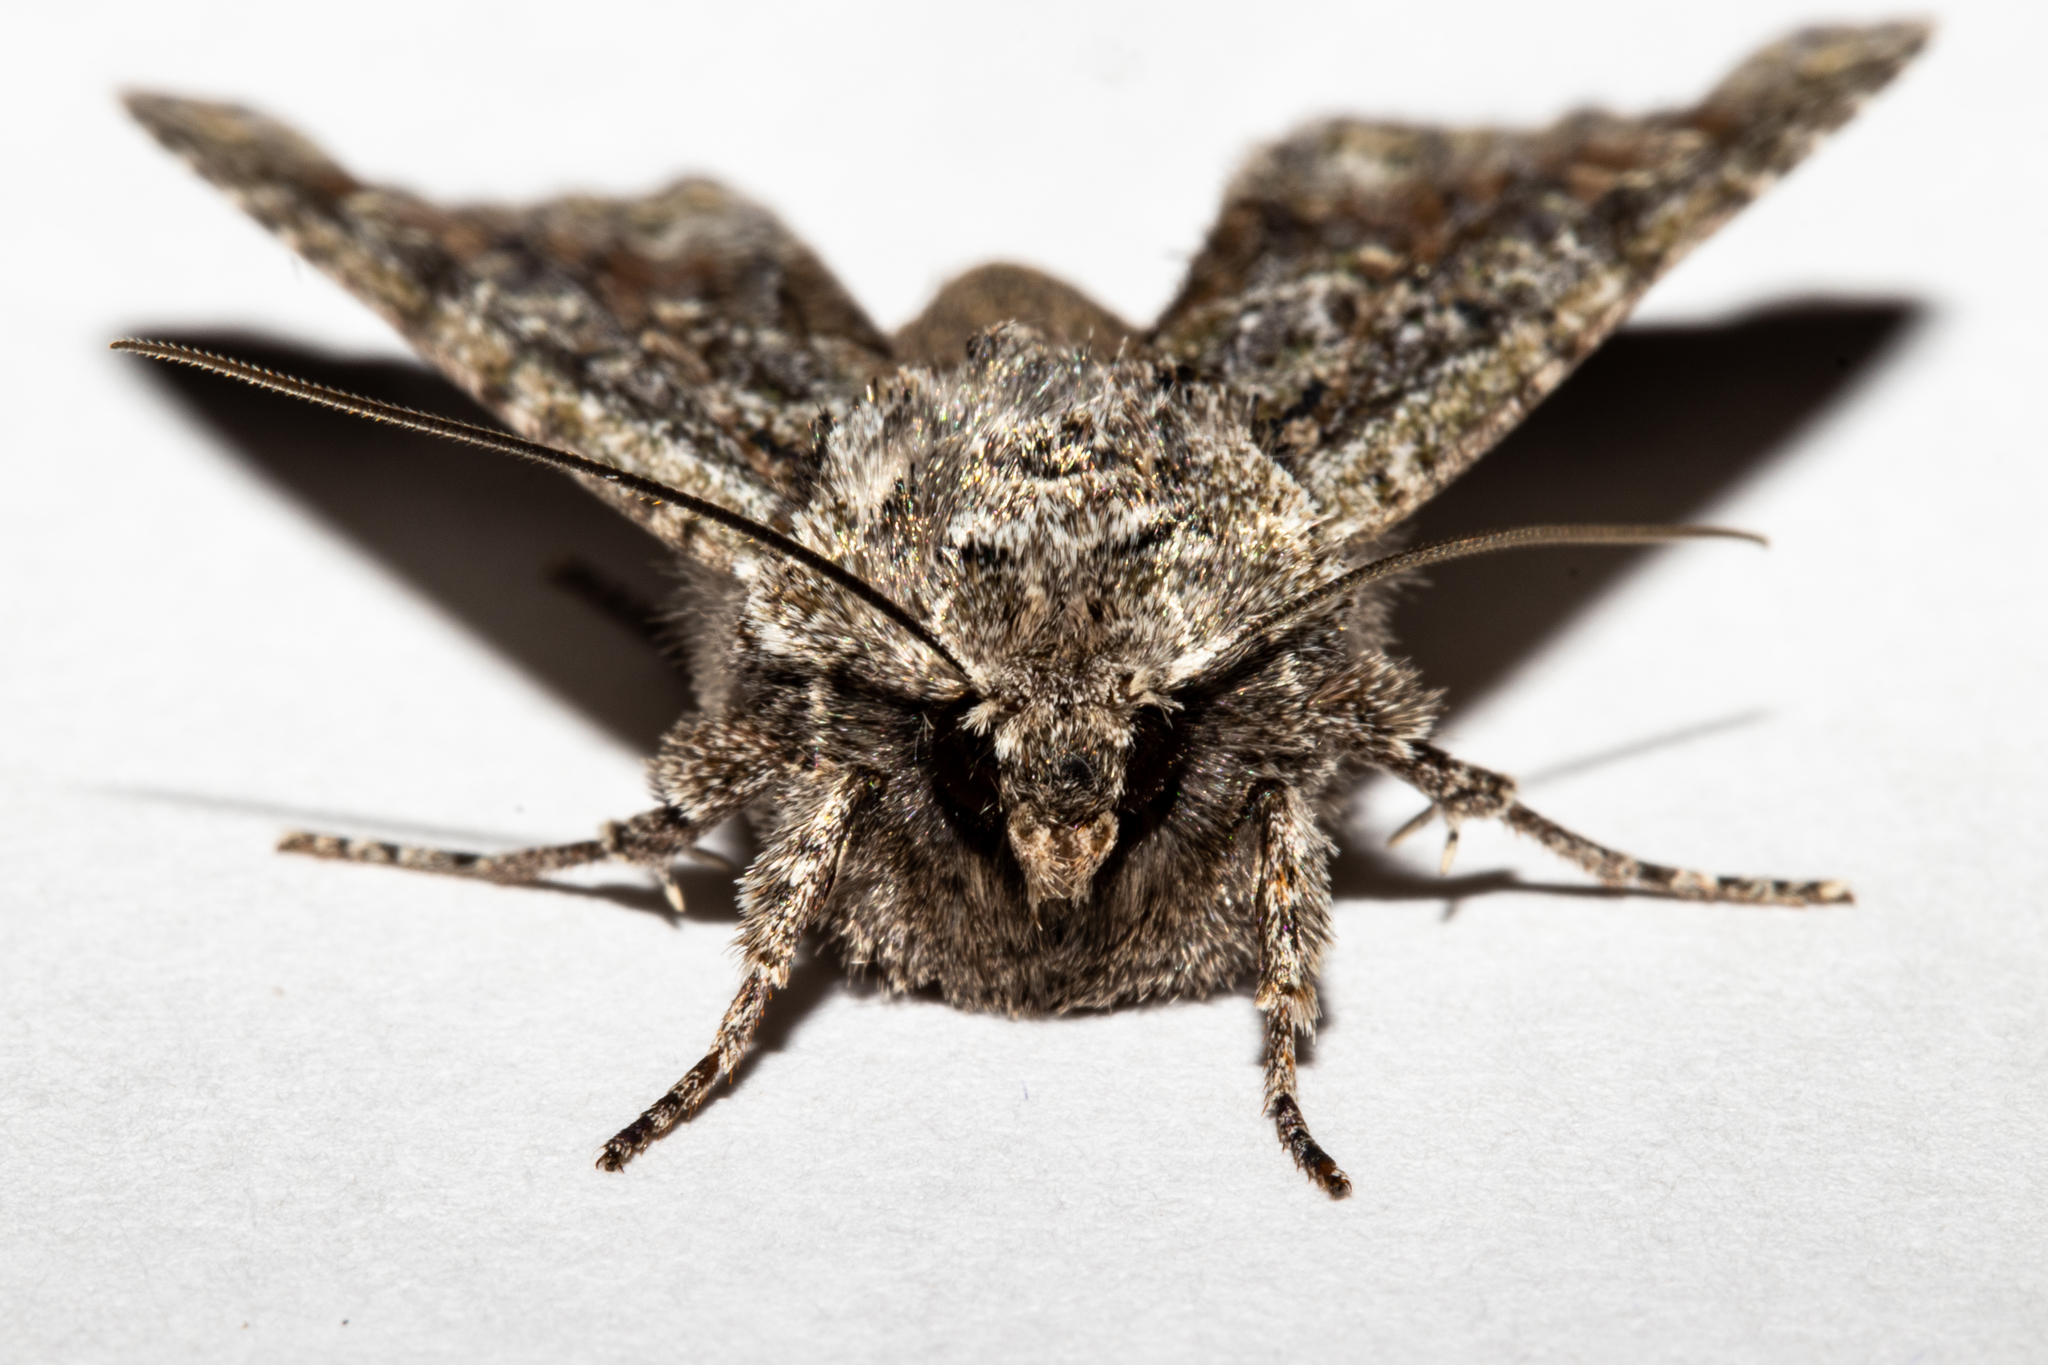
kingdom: Animalia
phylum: Arthropoda
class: Insecta
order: Lepidoptera
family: Noctuidae
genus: Ichneutica
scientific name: Ichneutica mutans
